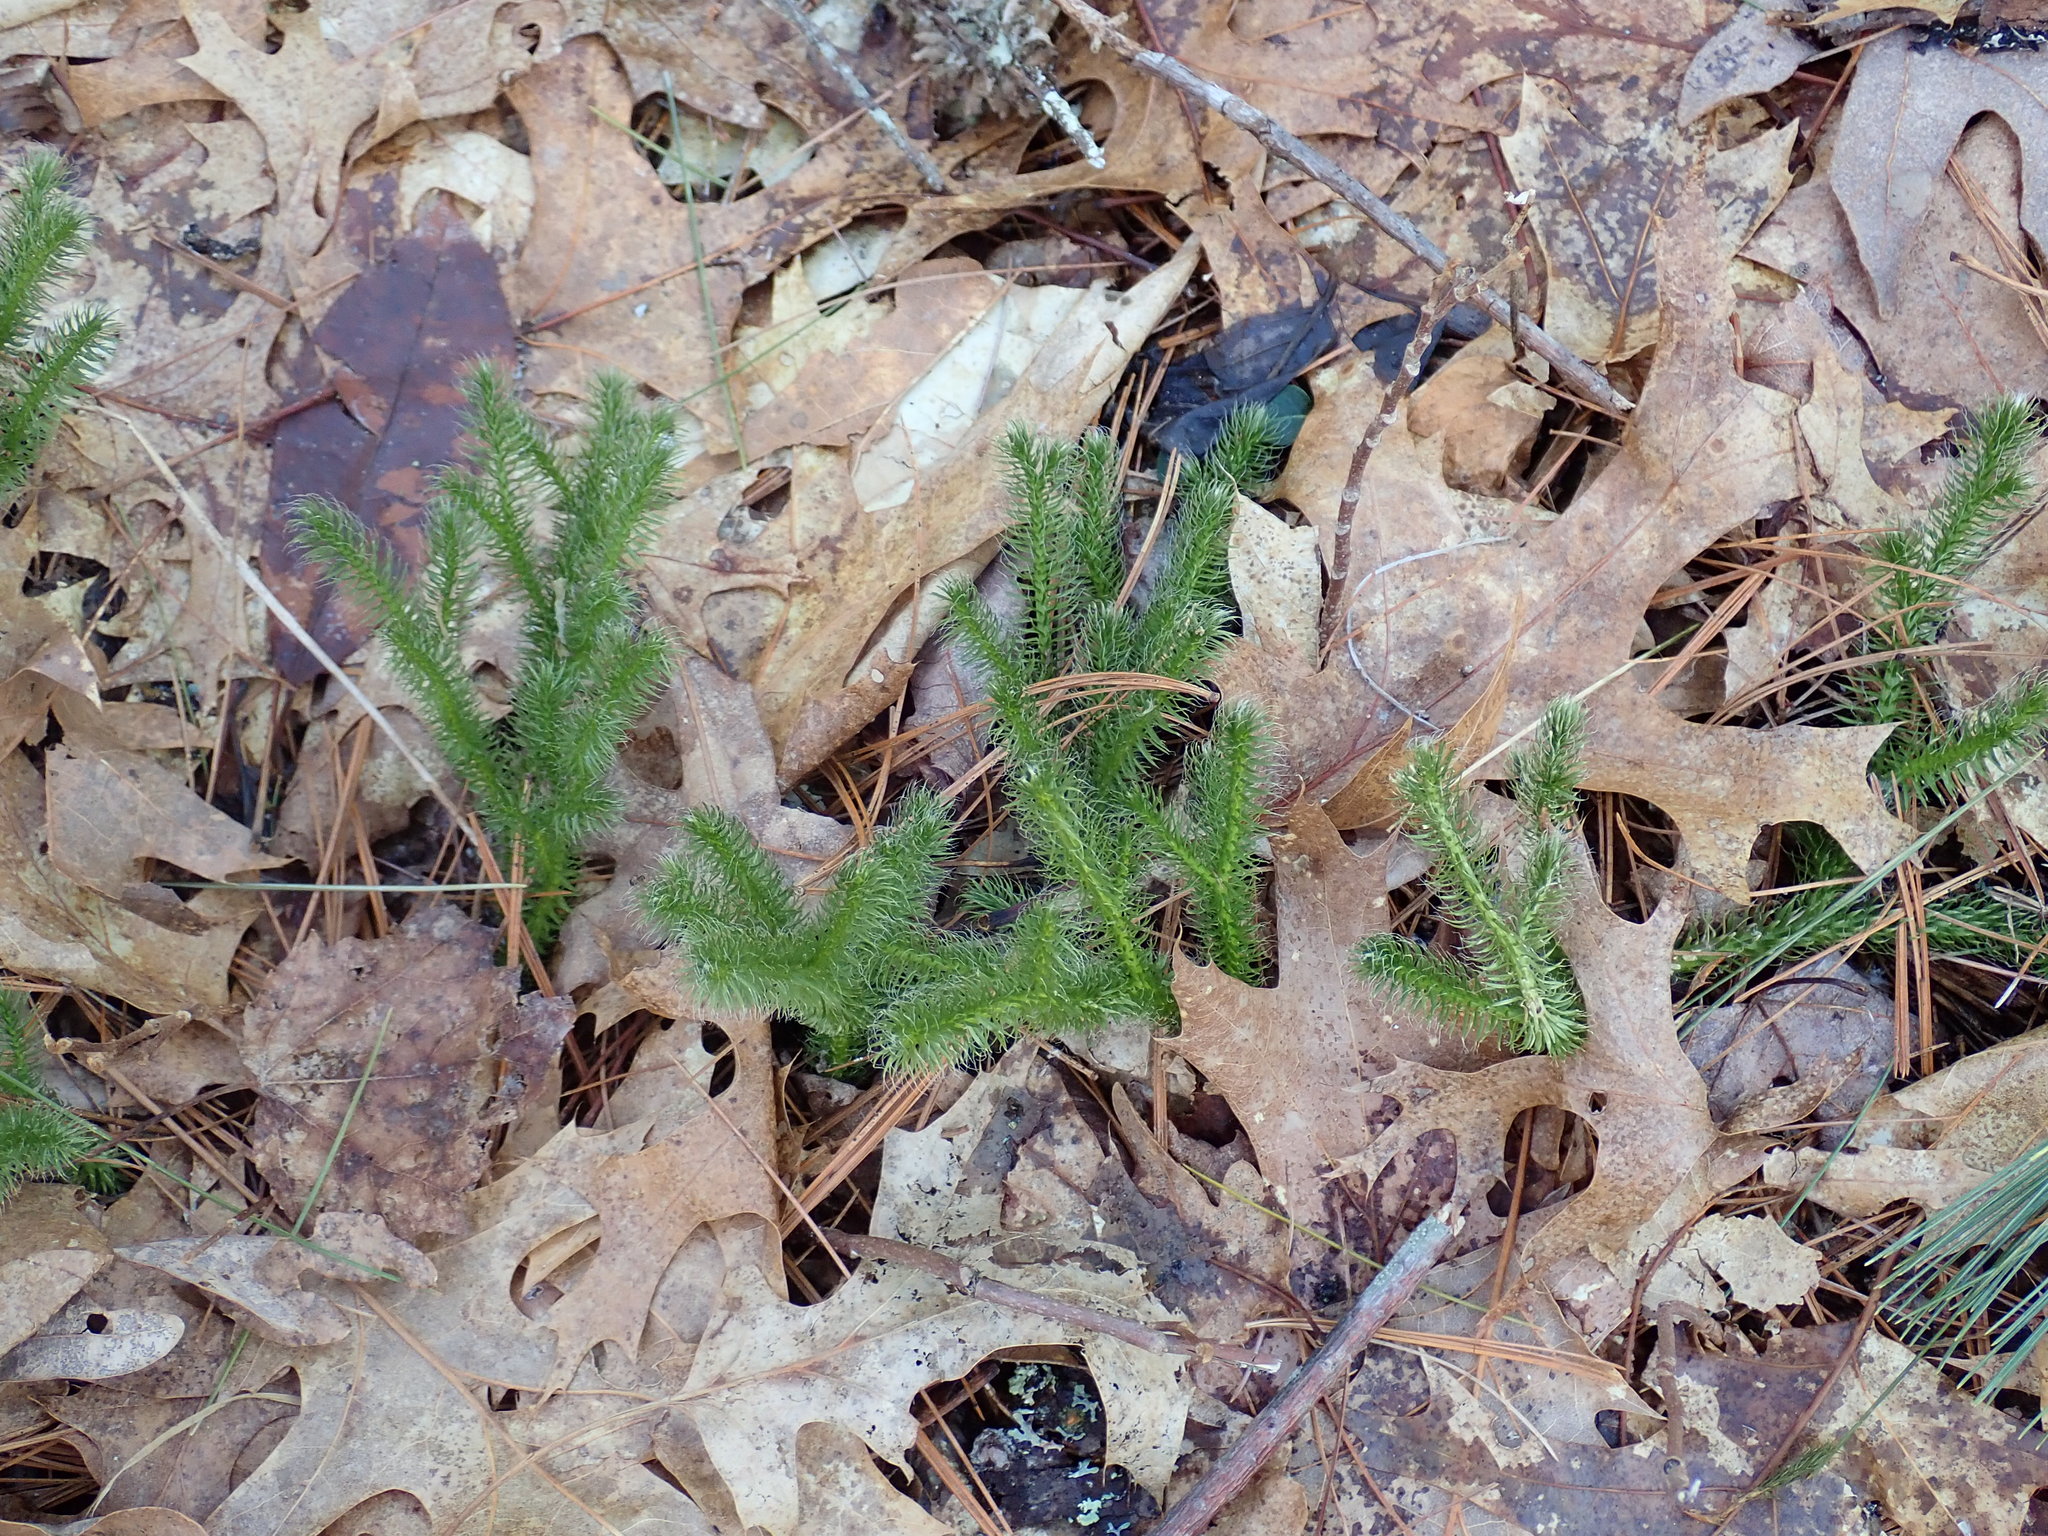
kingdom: Plantae
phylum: Tracheophyta
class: Lycopodiopsida
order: Lycopodiales
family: Lycopodiaceae
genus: Lycopodium
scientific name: Lycopodium clavatum
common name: Stag's-horn clubmoss
